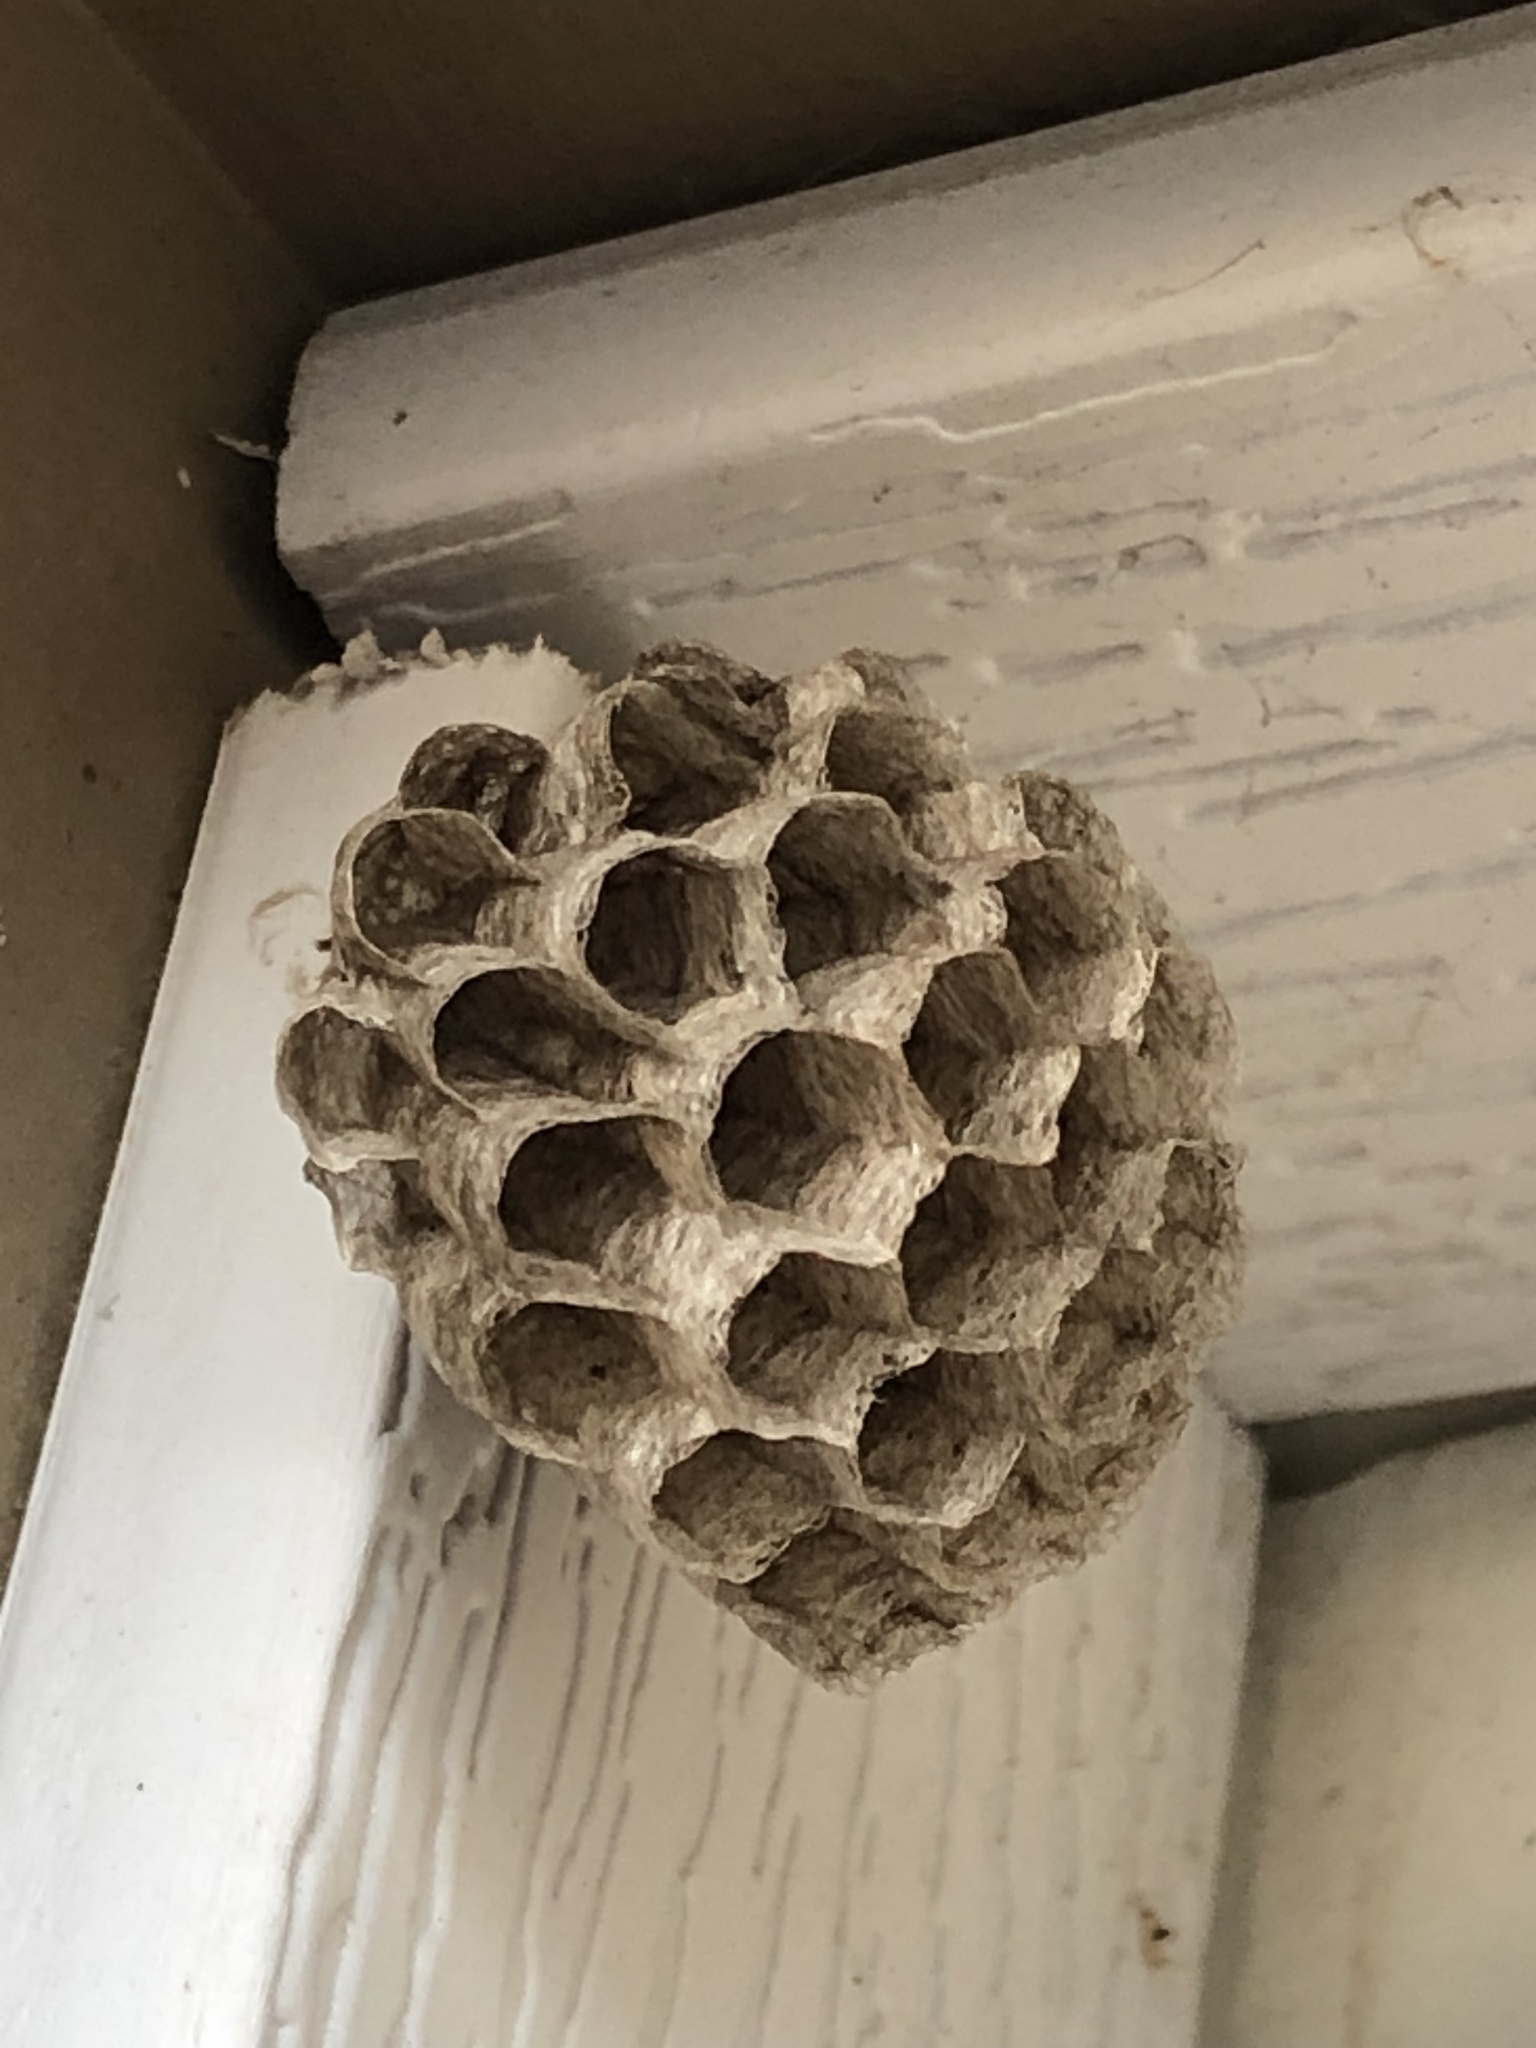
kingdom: Animalia
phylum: Arthropoda
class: Insecta
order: Hymenoptera
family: Eumenidae
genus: Polistes
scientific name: Polistes
